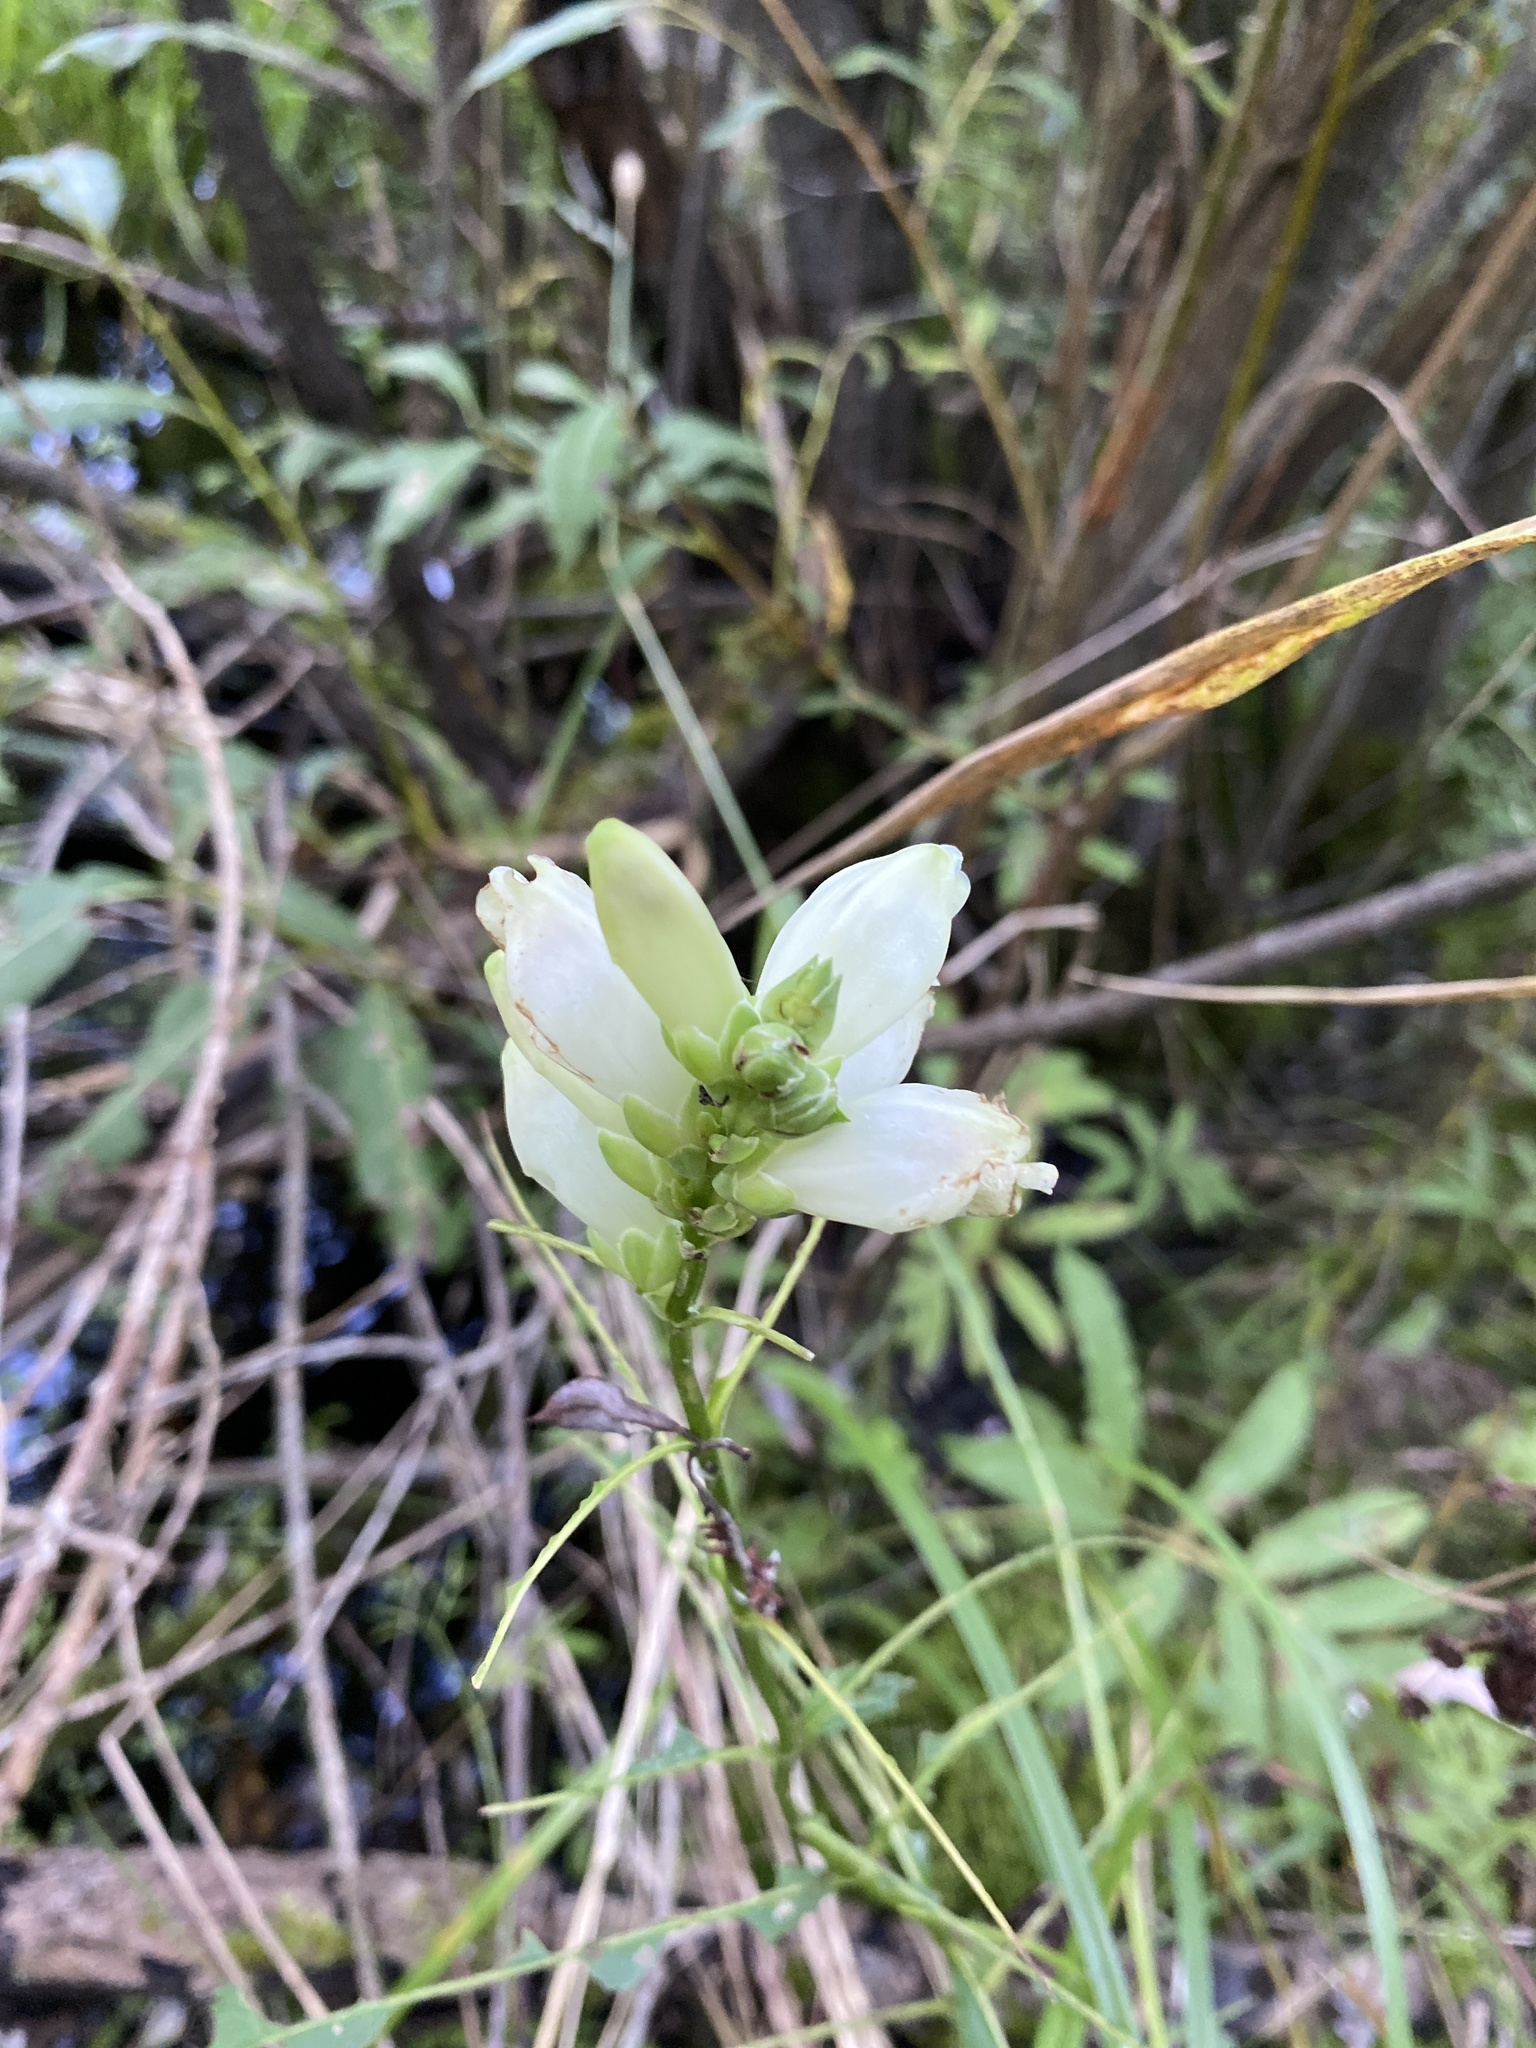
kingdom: Plantae
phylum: Tracheophyta
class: Magnoliopsida
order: Lamiales
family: Plantaginaceae
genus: Chelone
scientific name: Chelone glabra
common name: Snakehead
